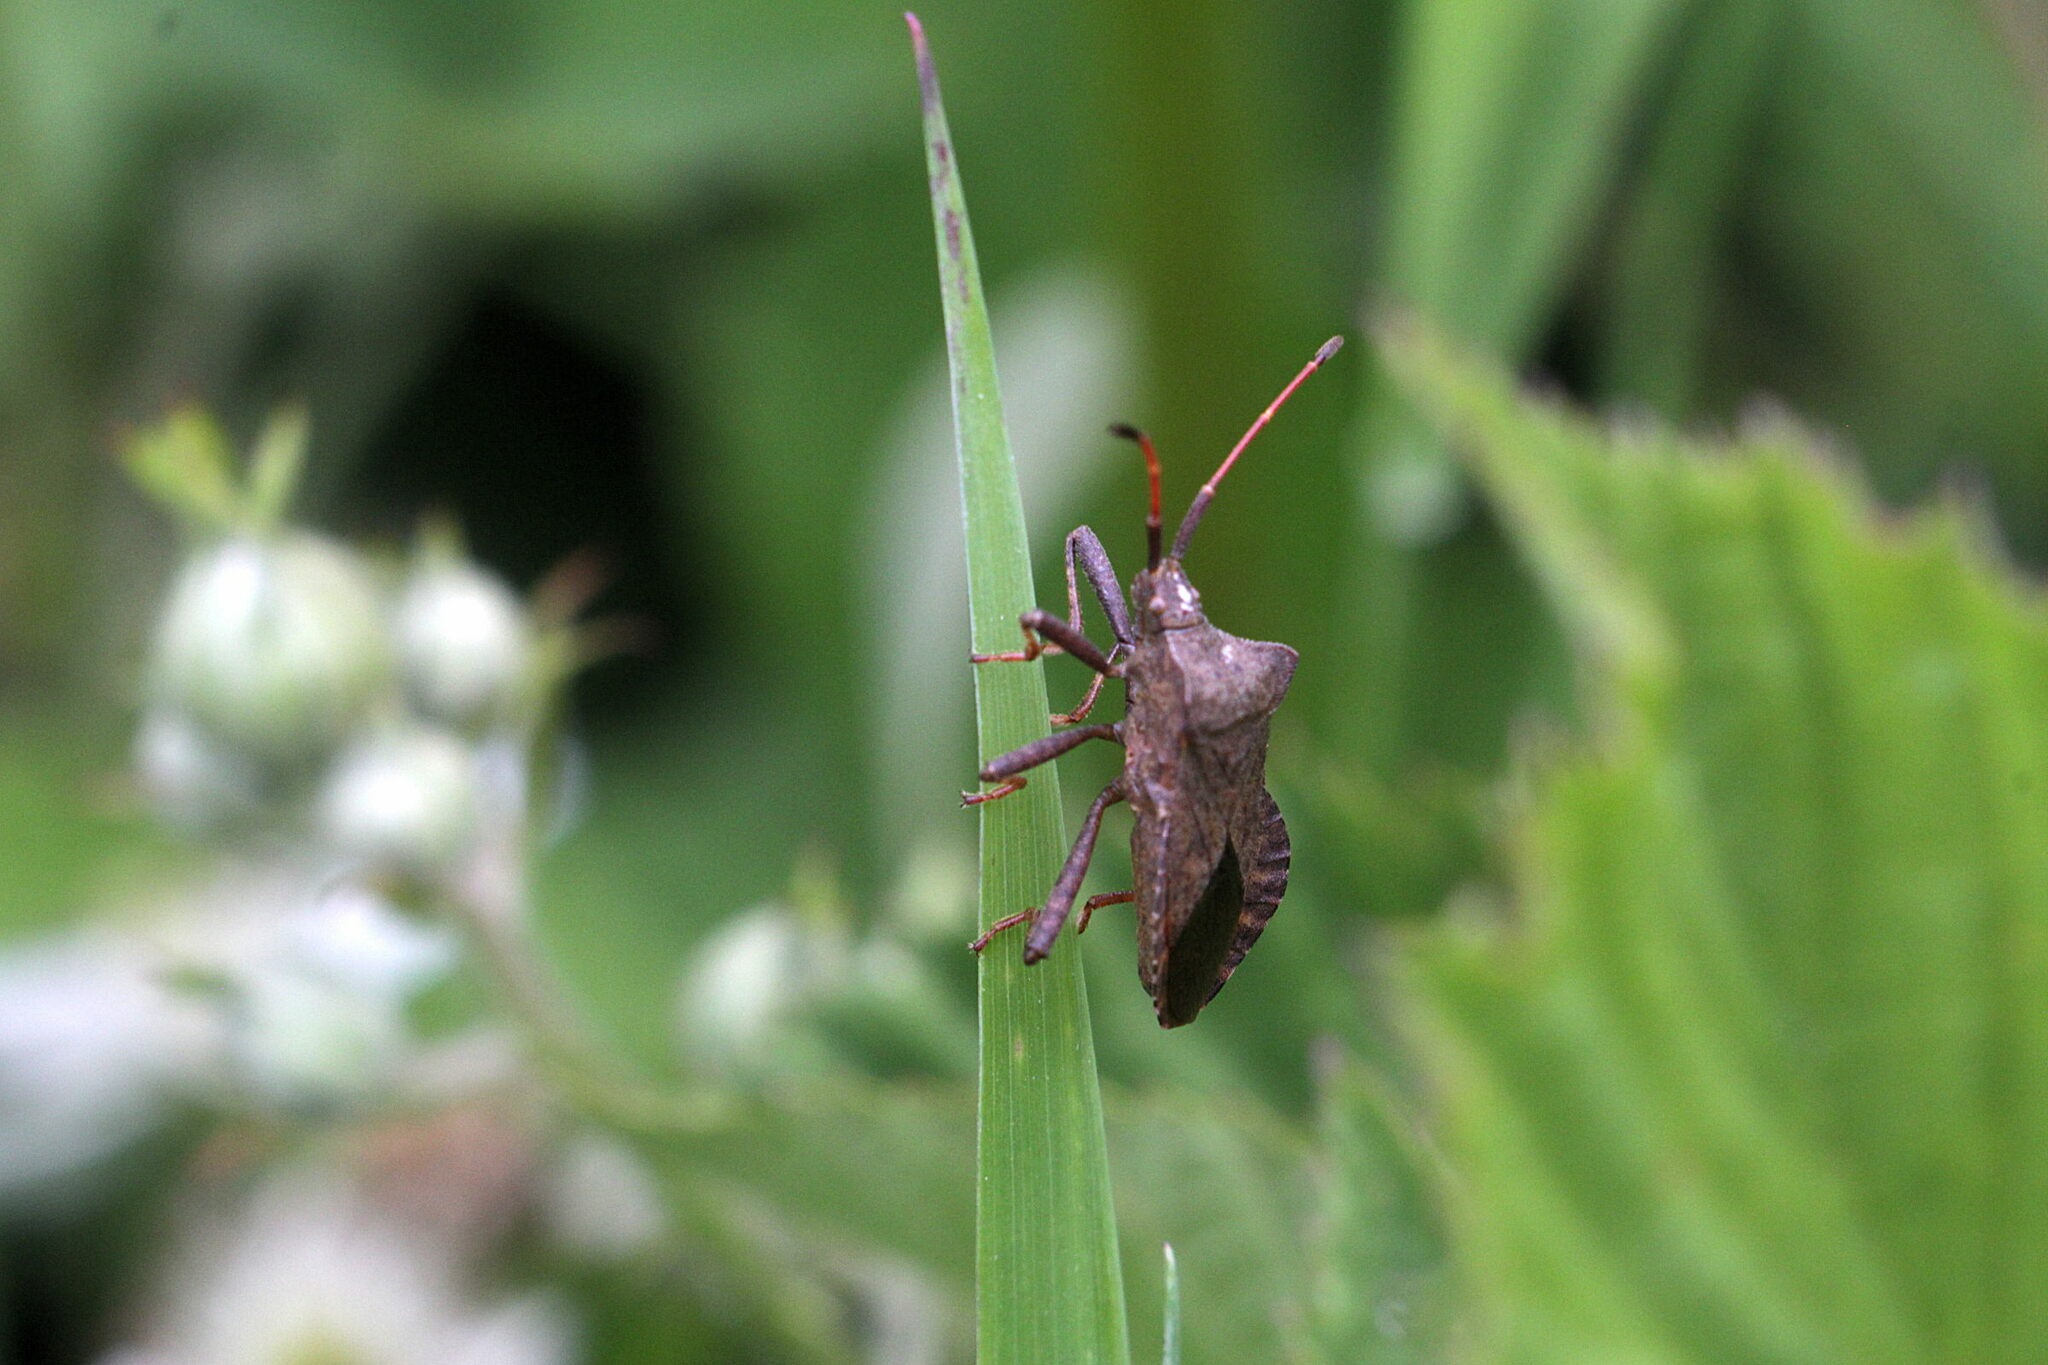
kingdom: Animalia
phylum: Arthropoda
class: Insecta
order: Hemiptera
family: Coreidae
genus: Coreus
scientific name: Coreus marginatus
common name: Dock bug
